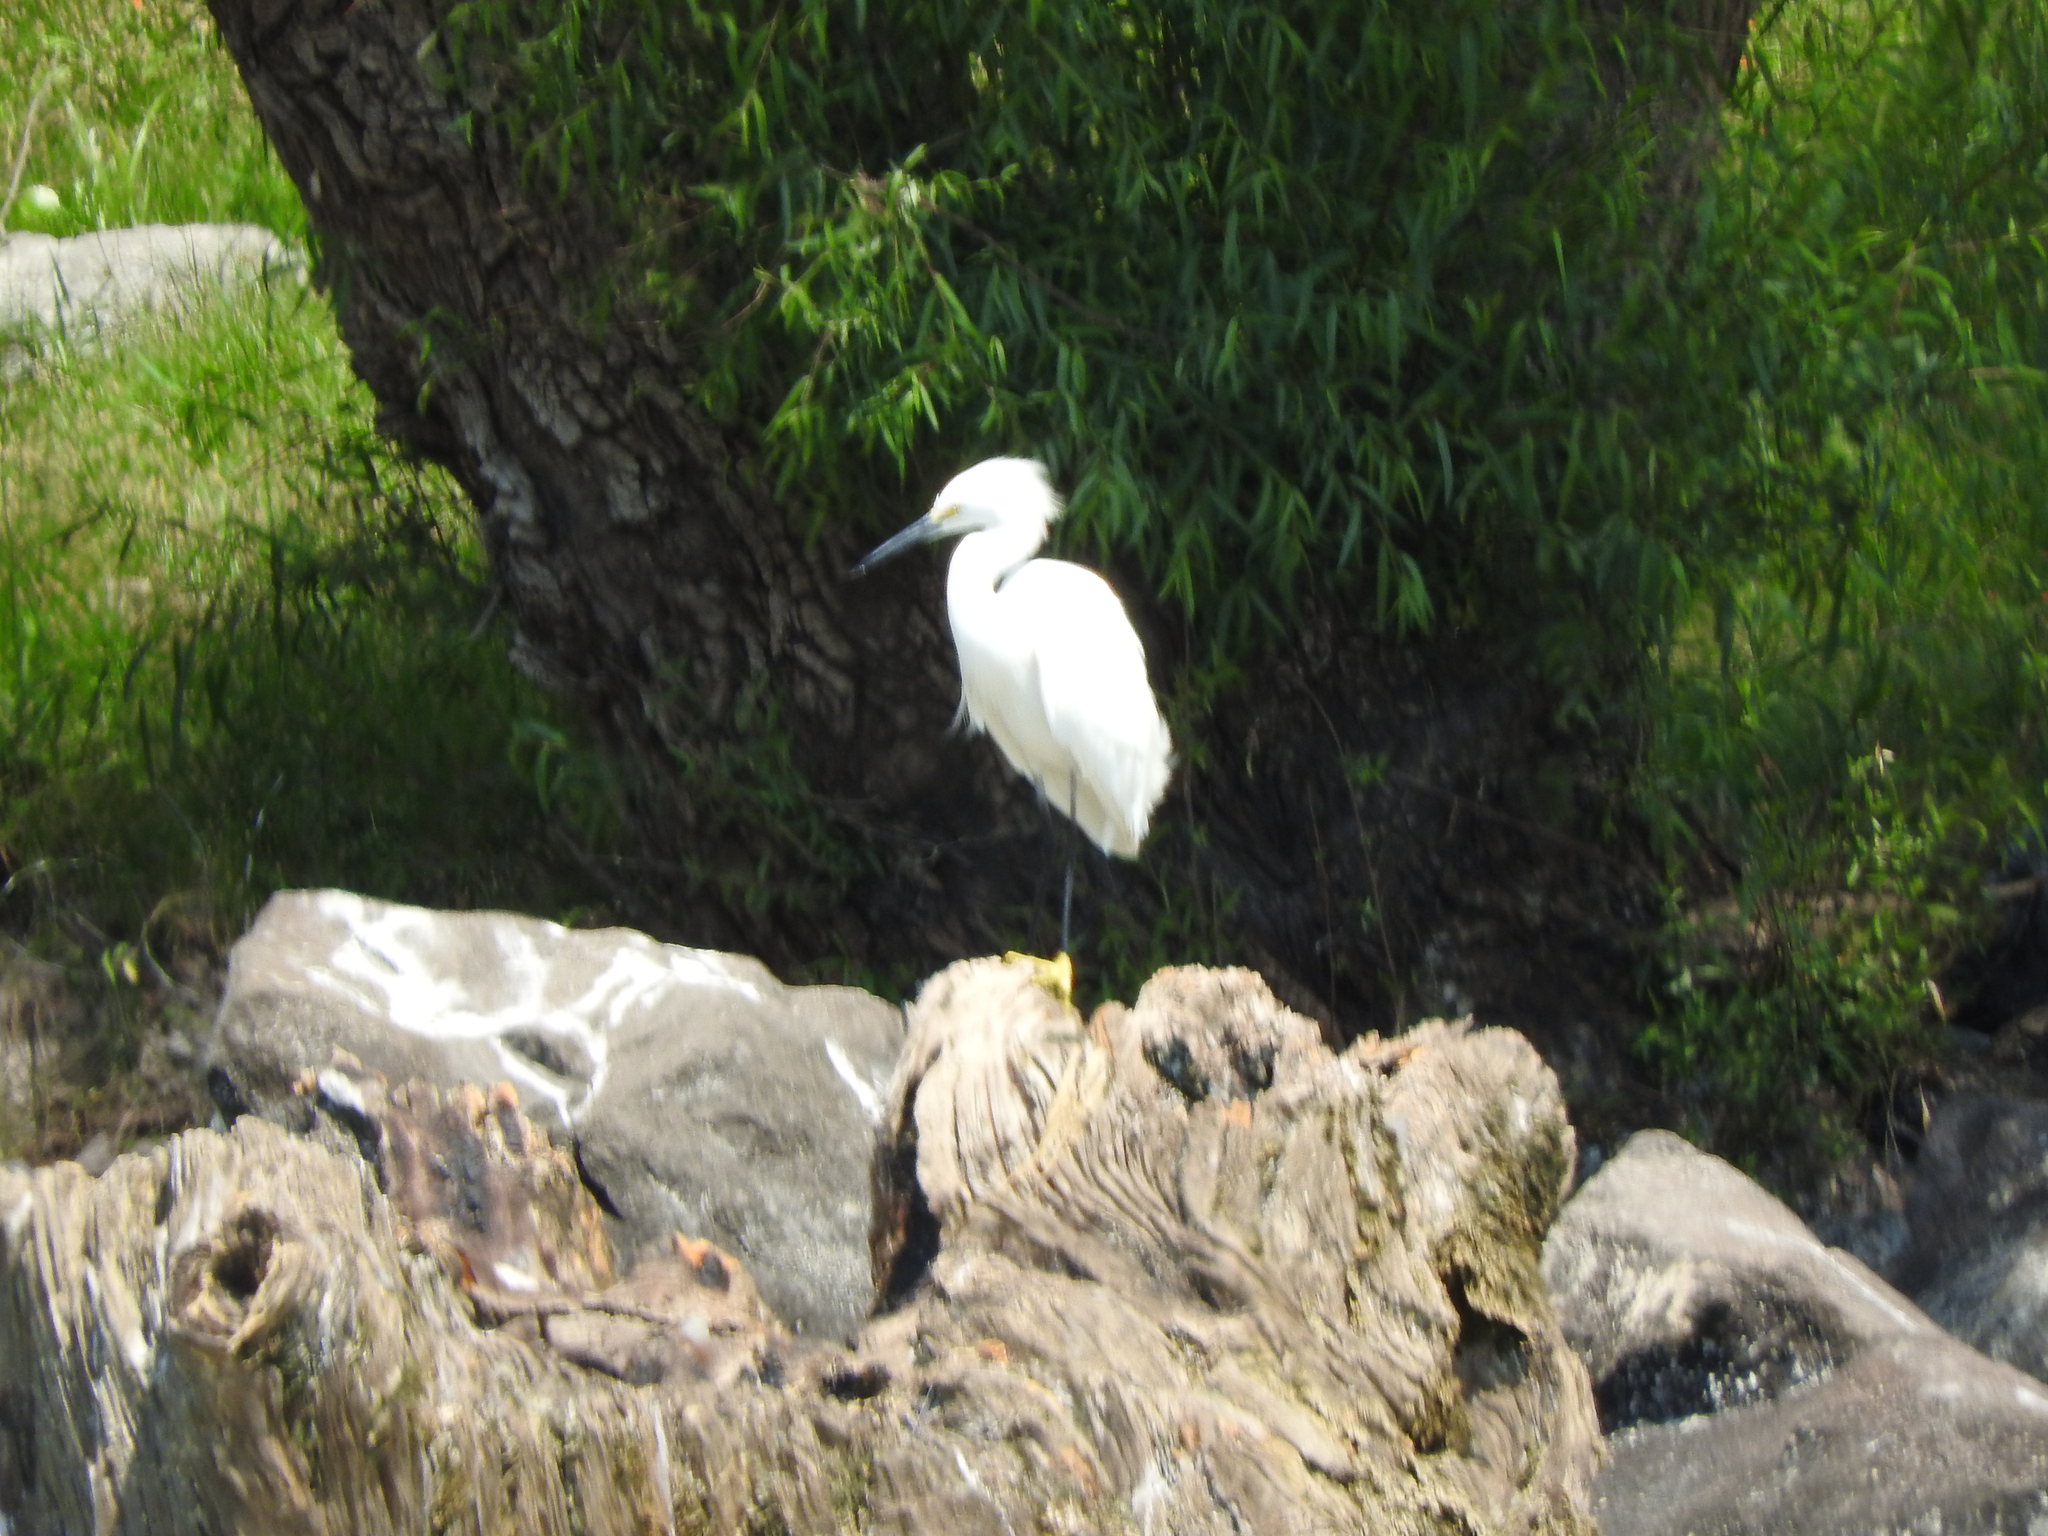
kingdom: Animalia
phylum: Chordata
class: Aves
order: Pelecaniformes
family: Ardeidae
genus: Egretta
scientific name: Egretta thula
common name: Snowy egret
